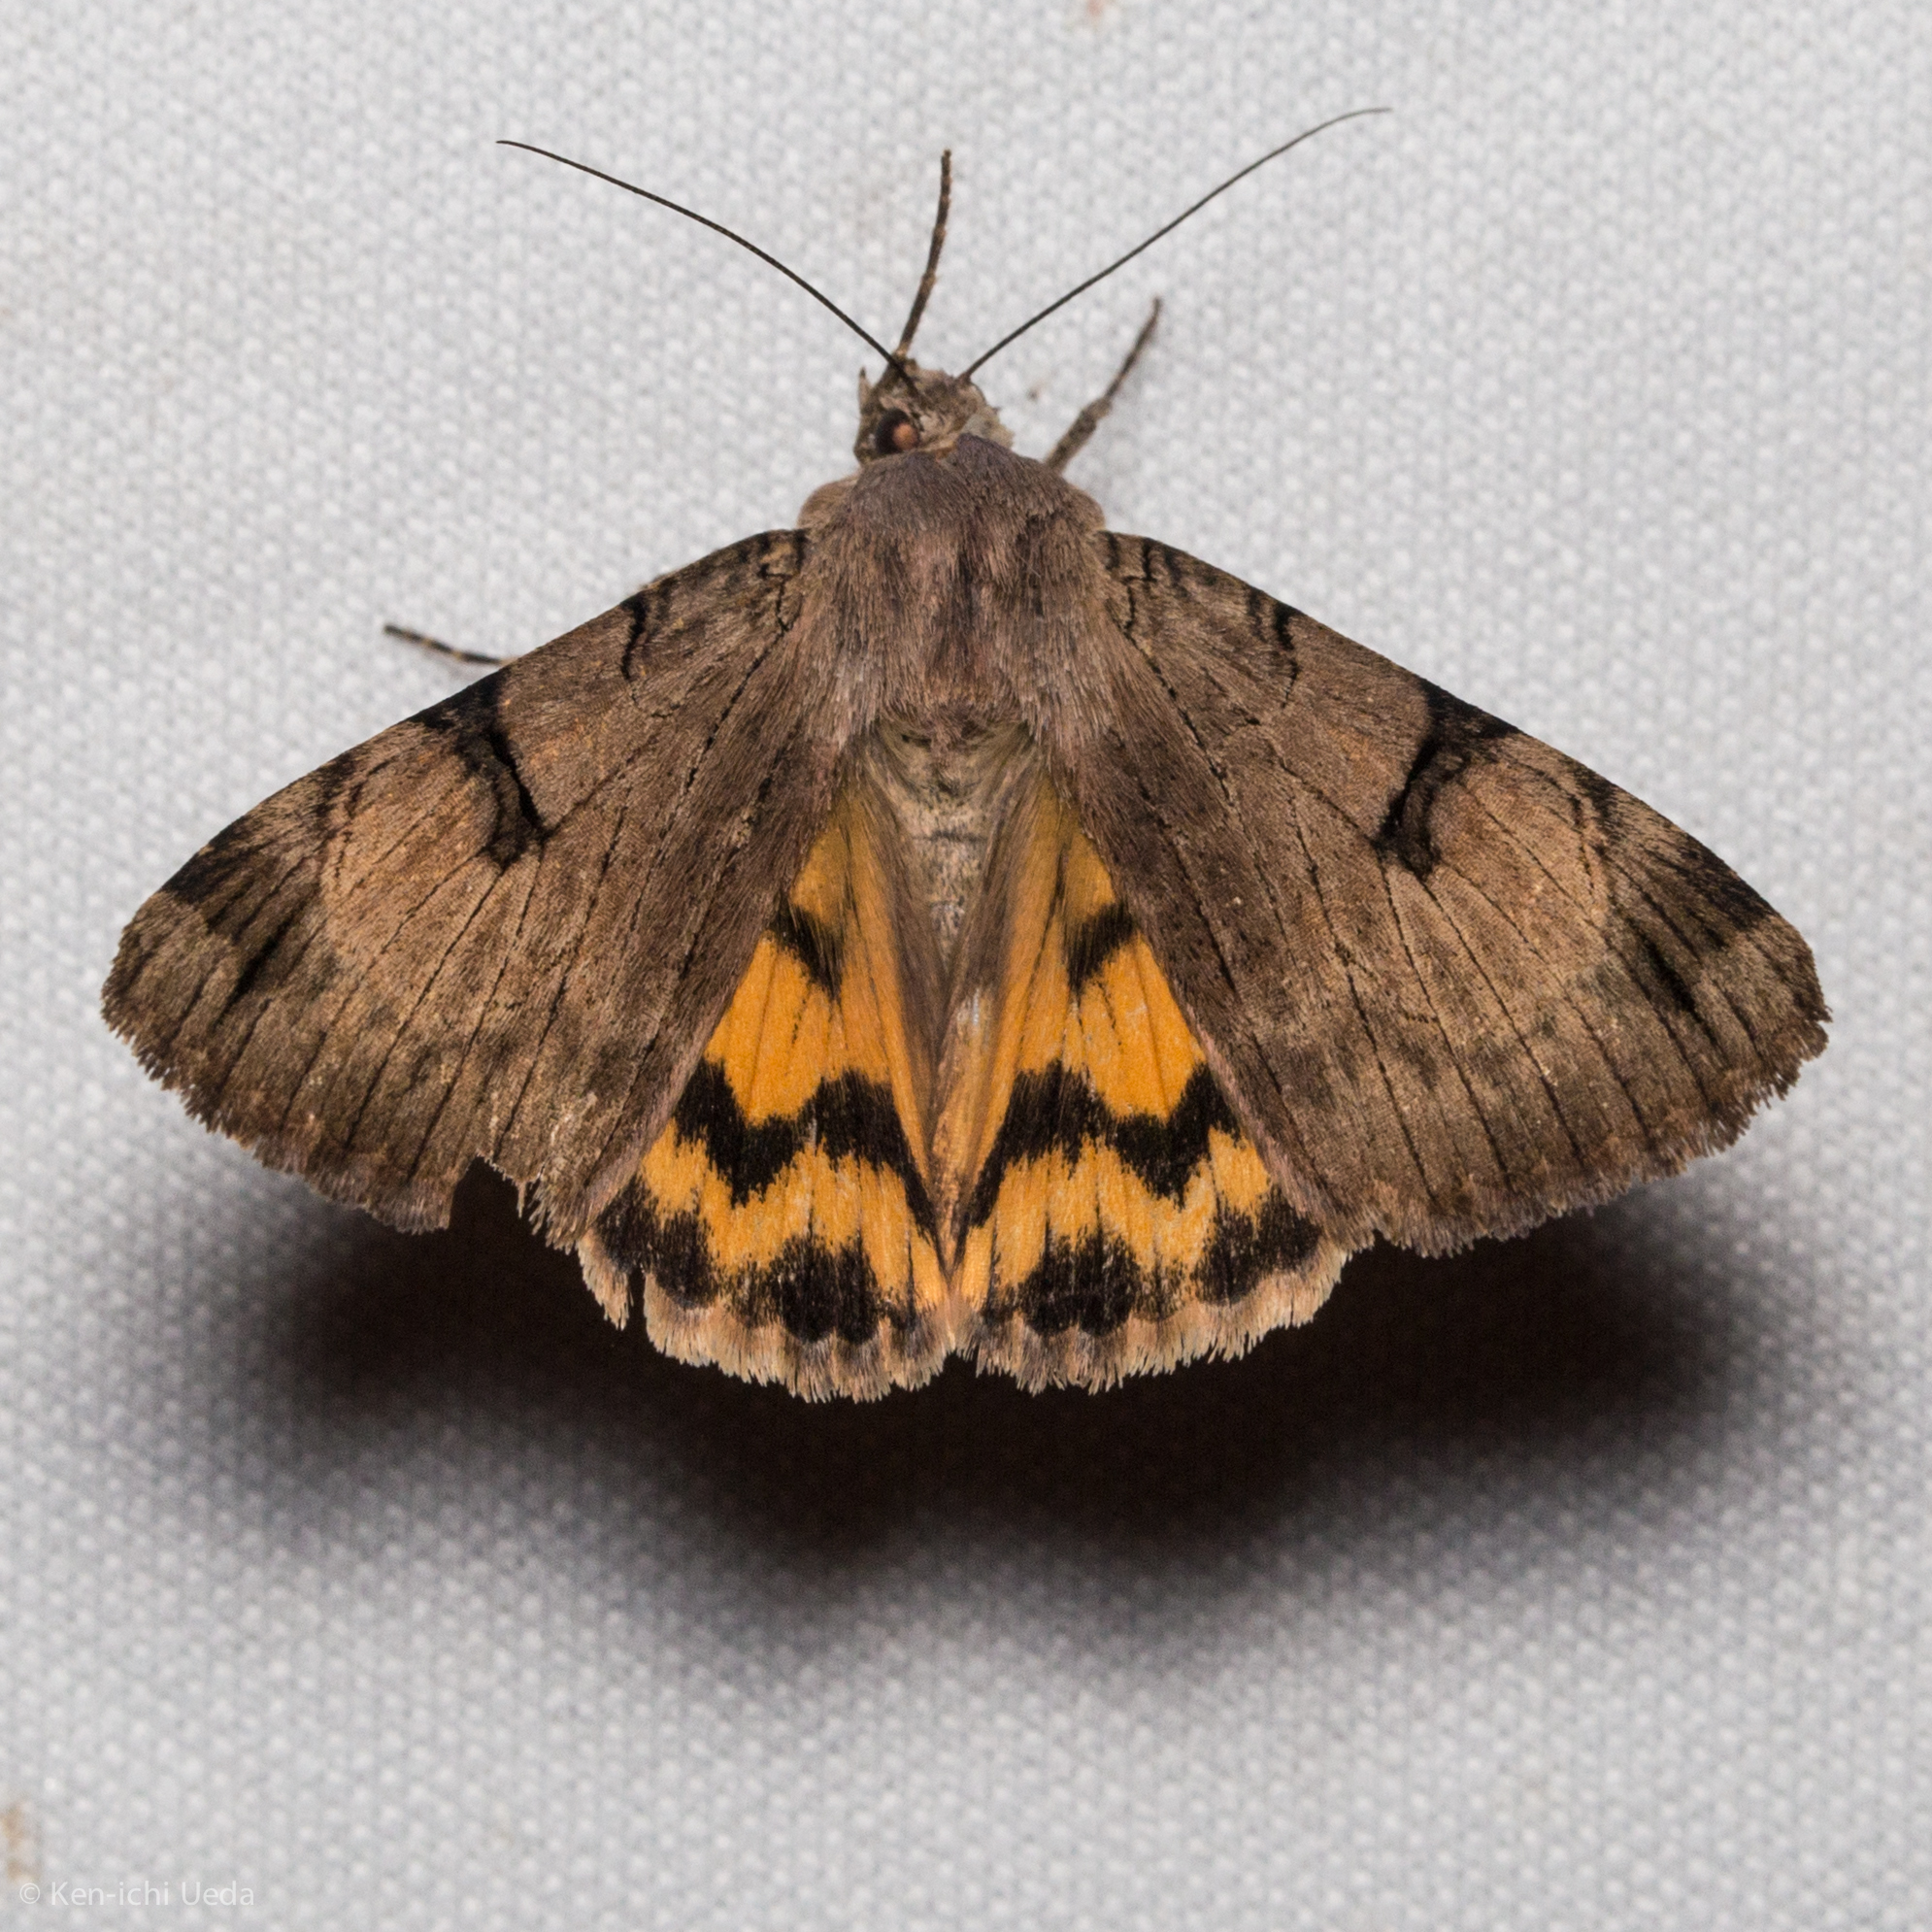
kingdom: Animalia
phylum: Arthropoda
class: Insecta
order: Lepidoptera
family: Erebidae
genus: Drasteria
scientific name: Drasteria ochracea
